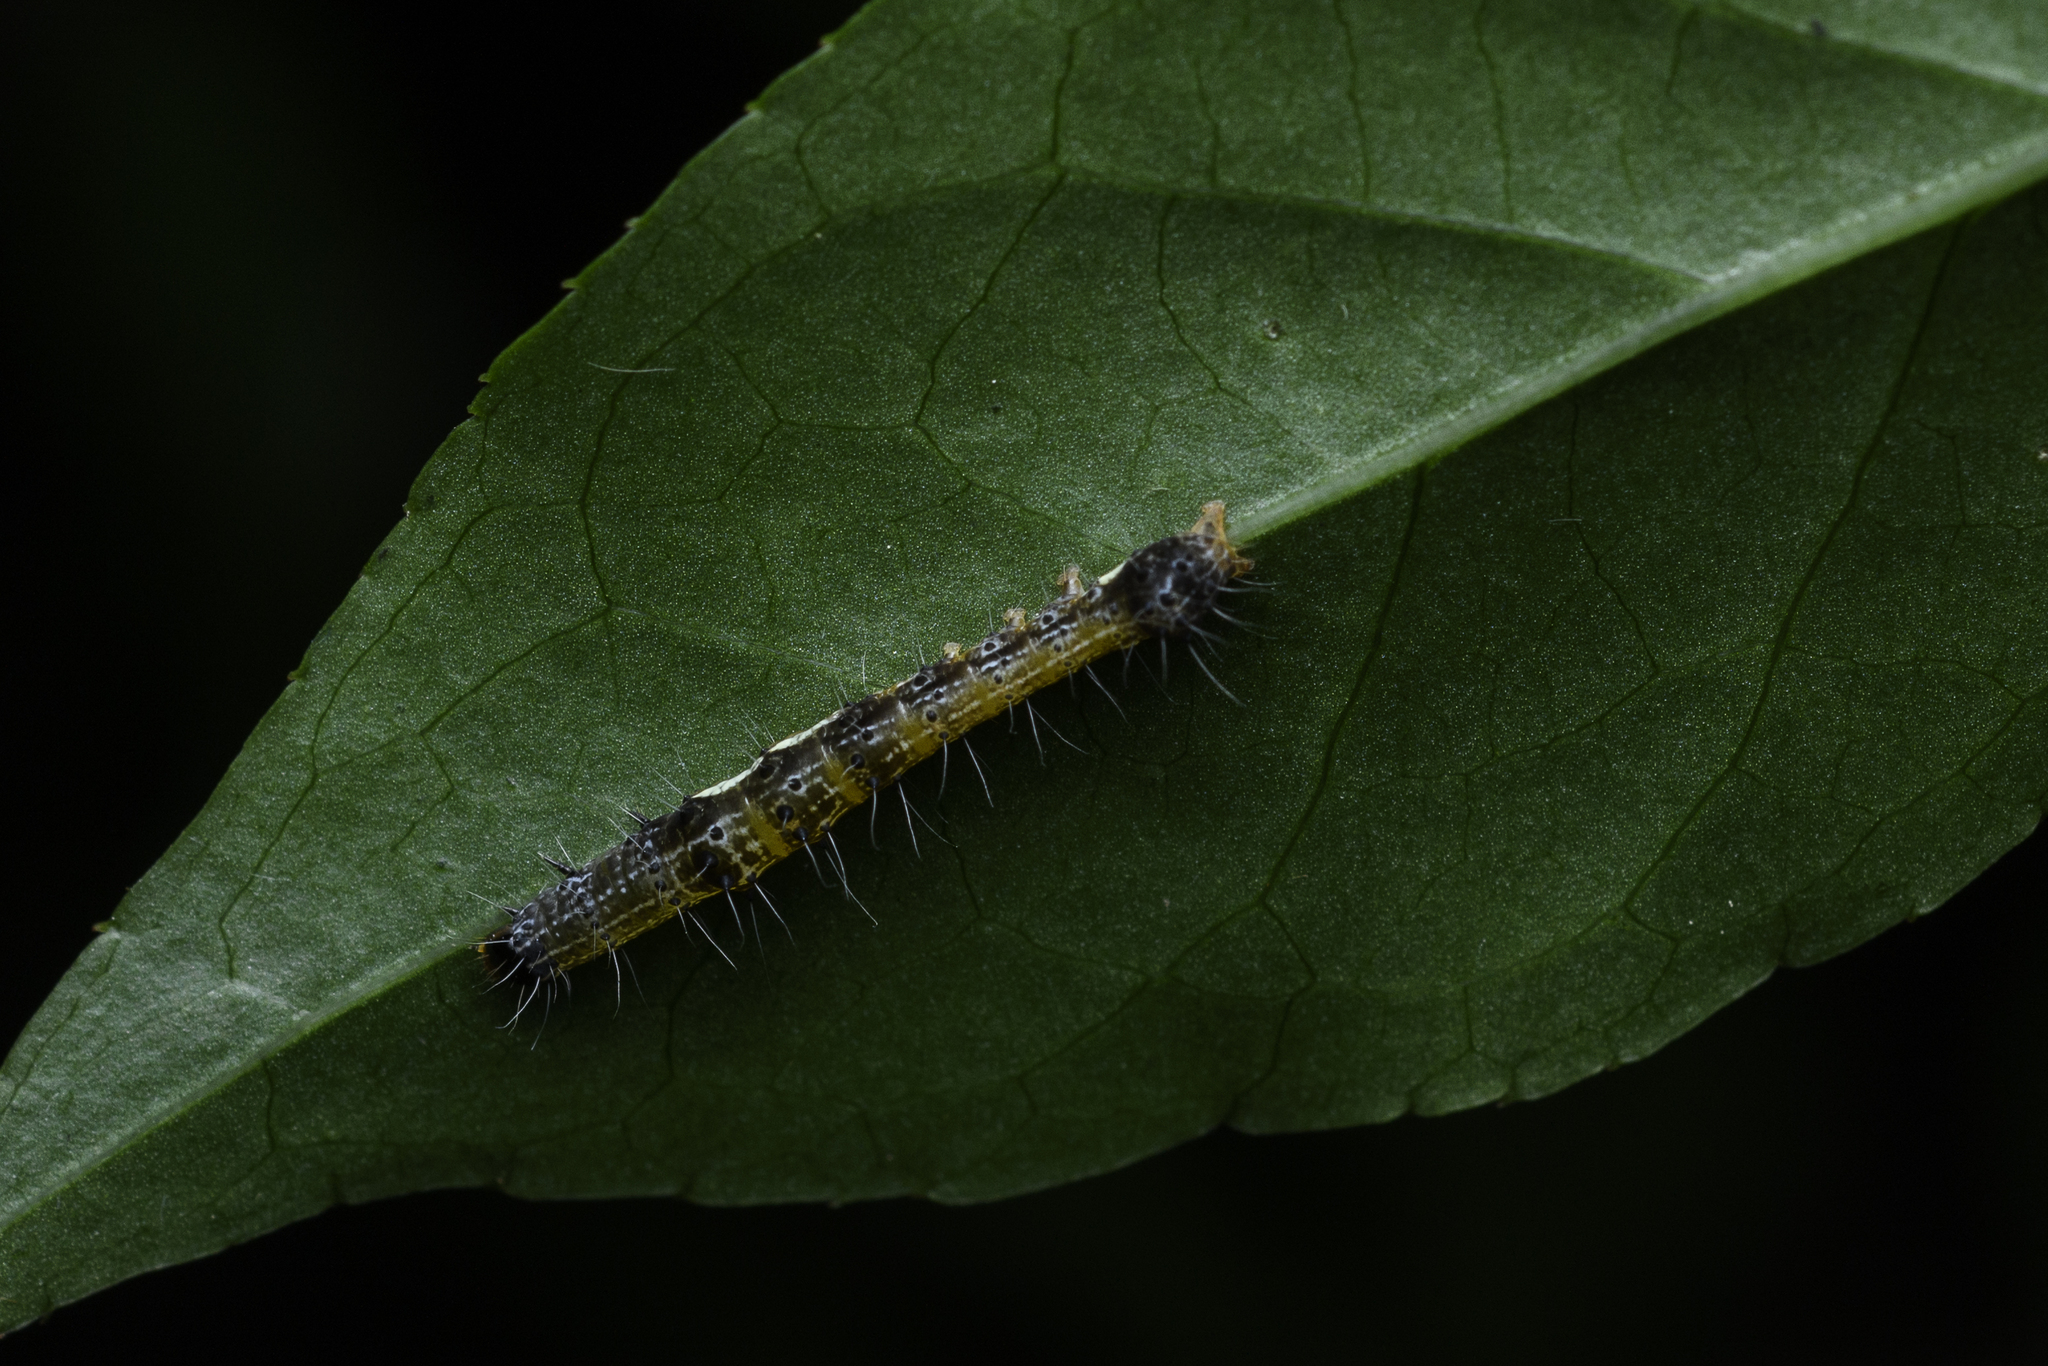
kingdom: Animalia
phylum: Arthropoda
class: Insecta
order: Lepidoptera
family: Noctuidae
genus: Tiracola
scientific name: Tiracola aureata
